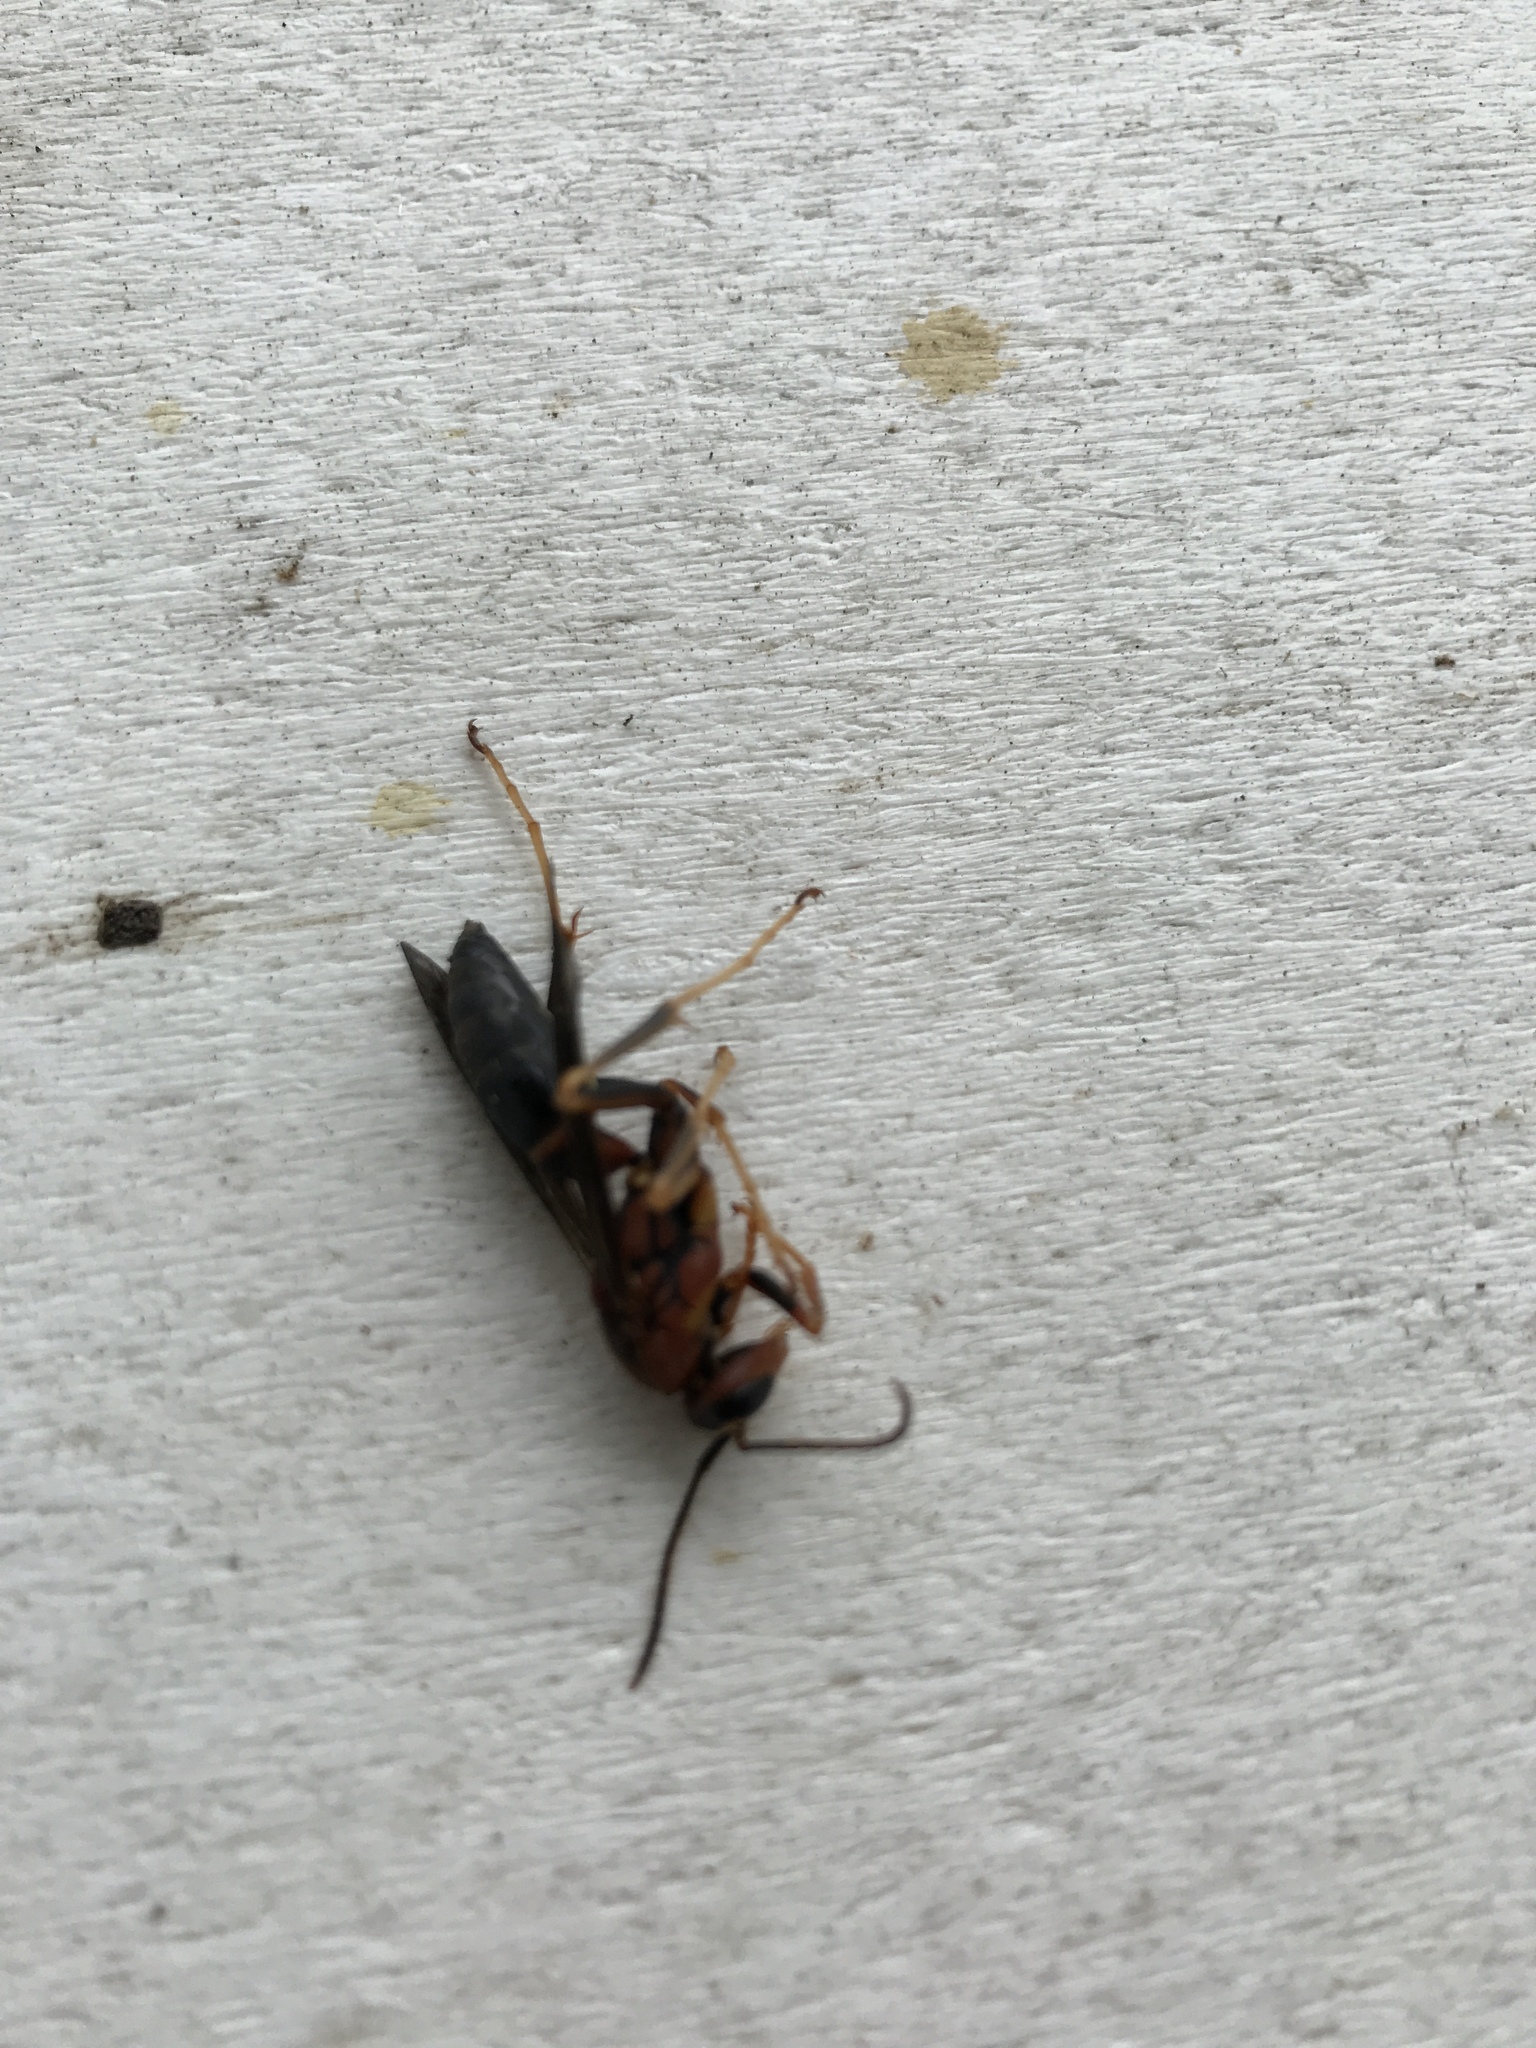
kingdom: Animalia
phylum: Arthropoda
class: Insecta
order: Hymenoptera
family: Eumenidae
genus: Polistes
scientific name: Polistes metricus
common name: Metric paper wasp
